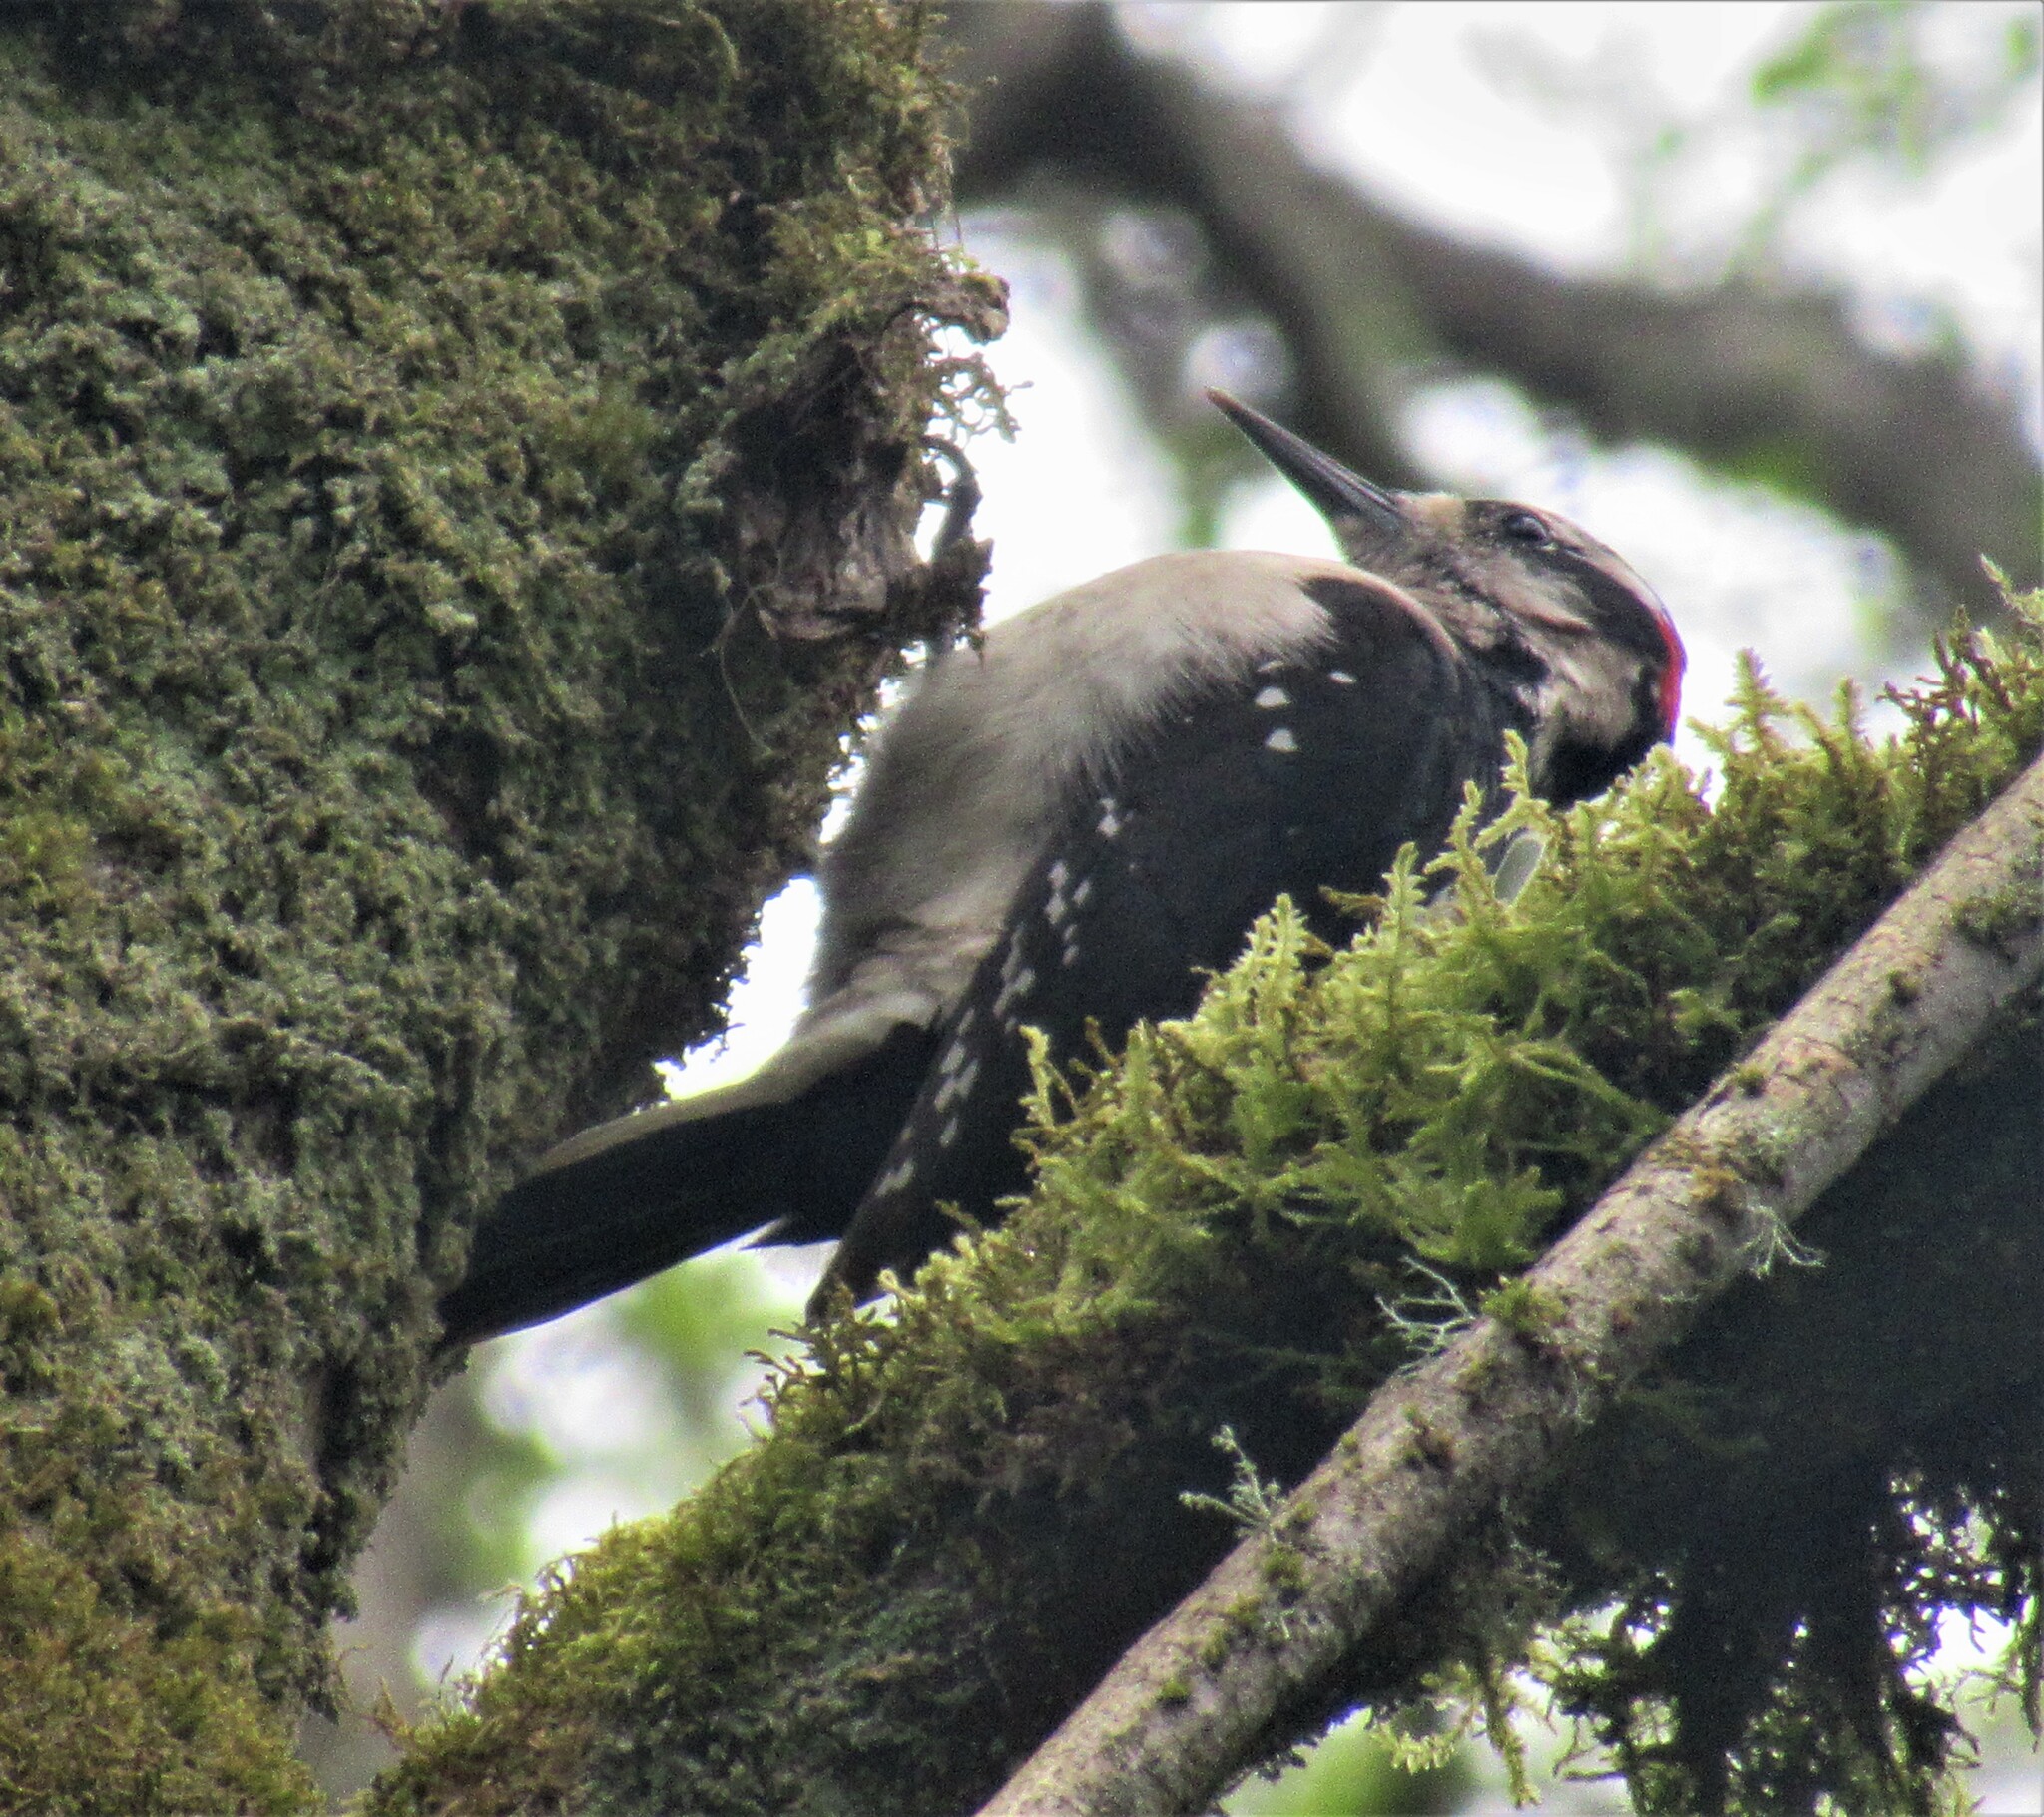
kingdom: Animalia
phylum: Chordata
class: Aves
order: Piciformes
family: Picidae
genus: Leuconotopicus
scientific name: Leuconotopicus villosus
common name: Hairy woodpecker
